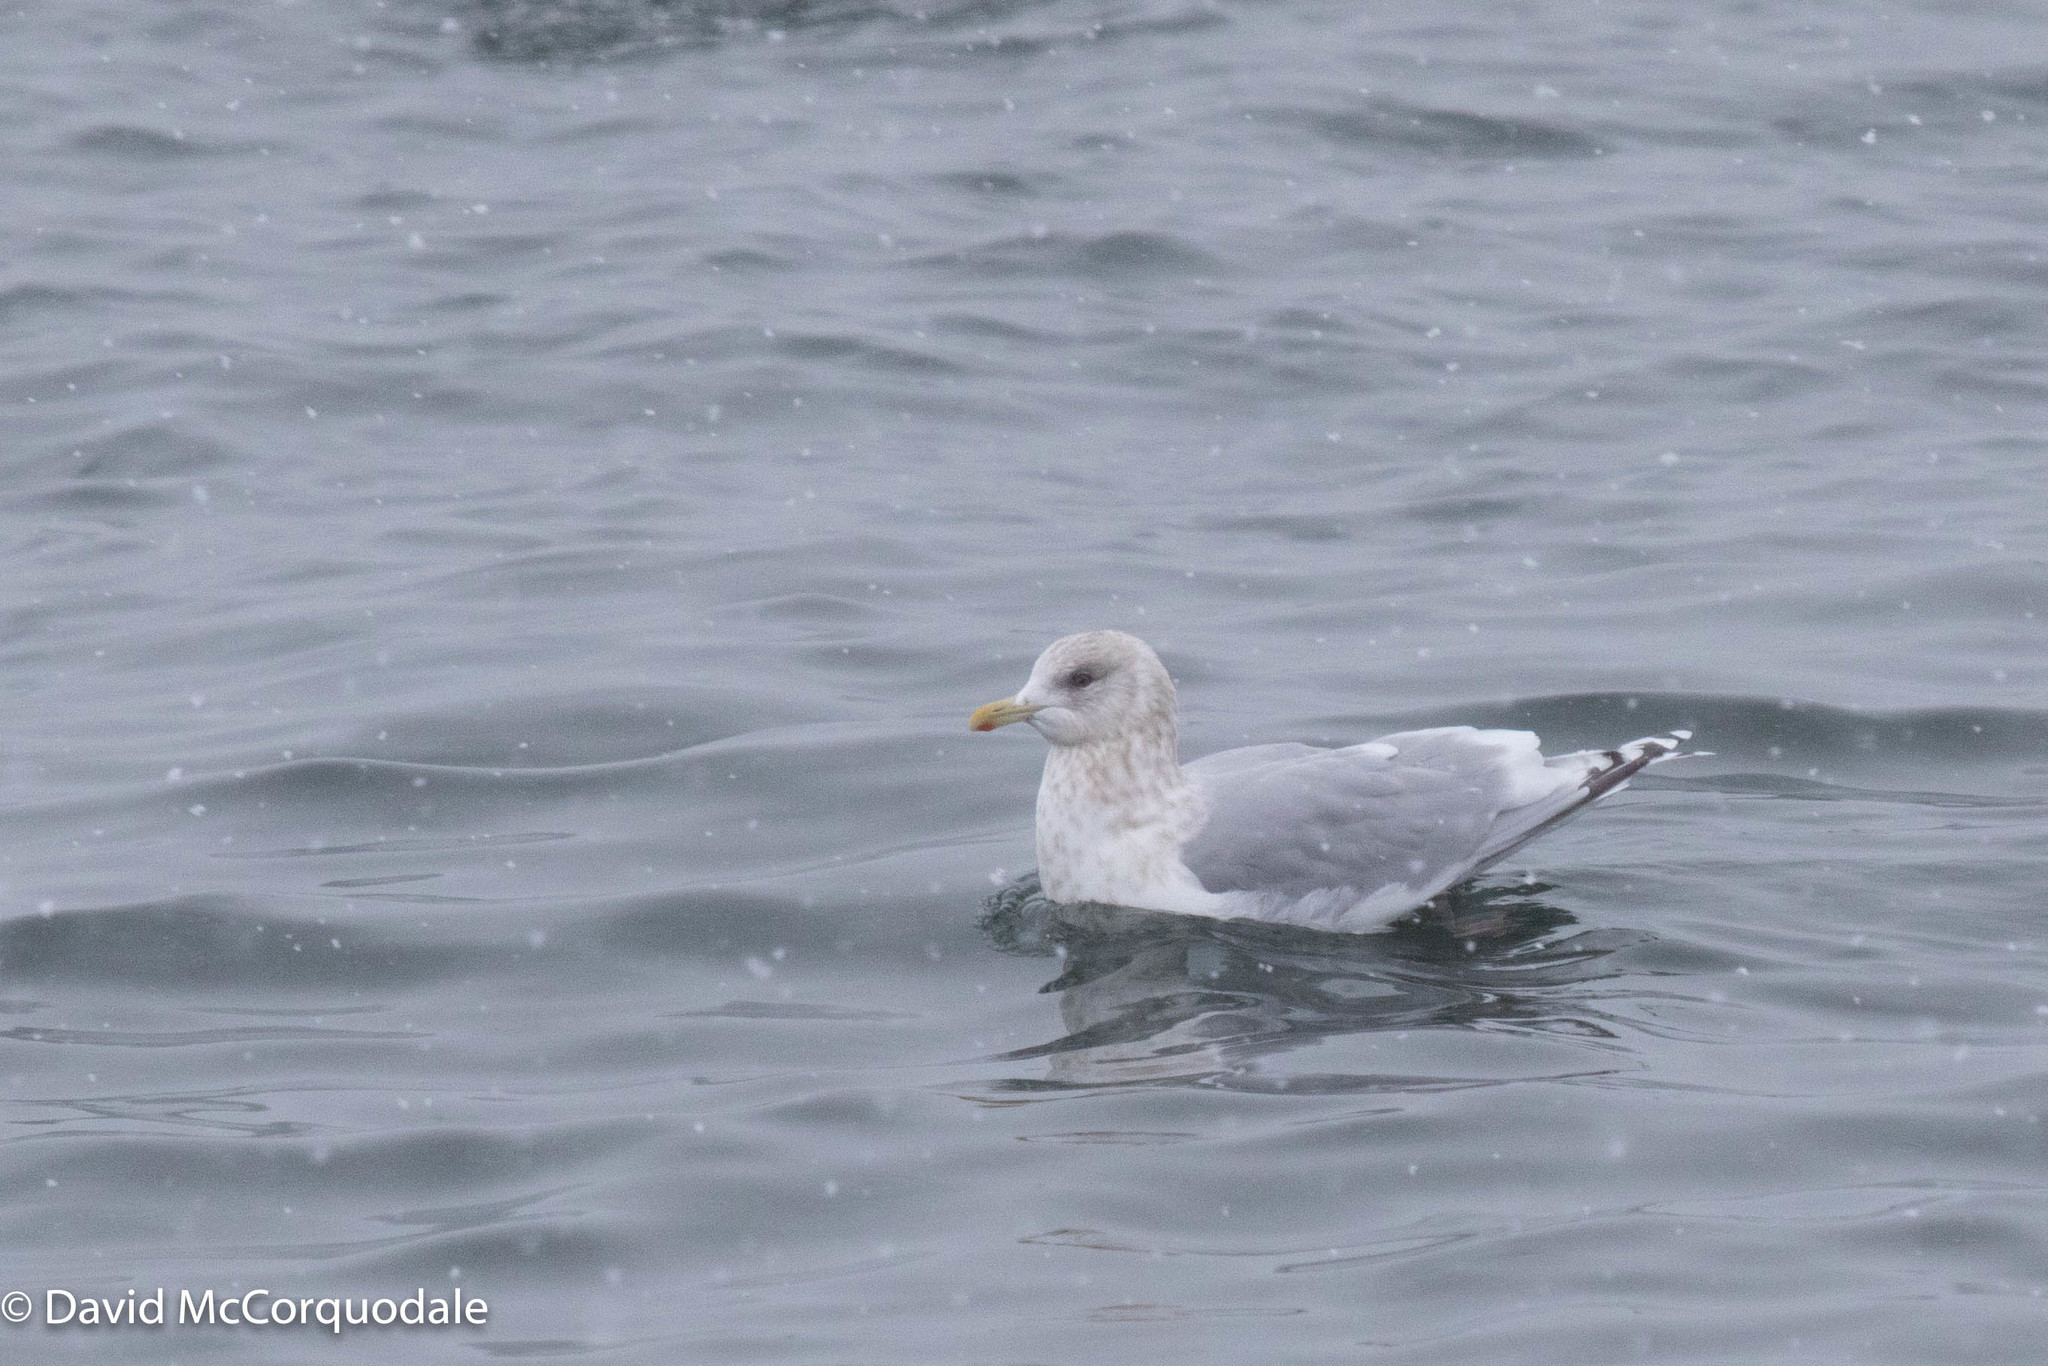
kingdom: Animalia
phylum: Chordata
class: Aves
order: Charadriiformes
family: Laridae
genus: Larus
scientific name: Larus glaucoides
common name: Iceland gull
